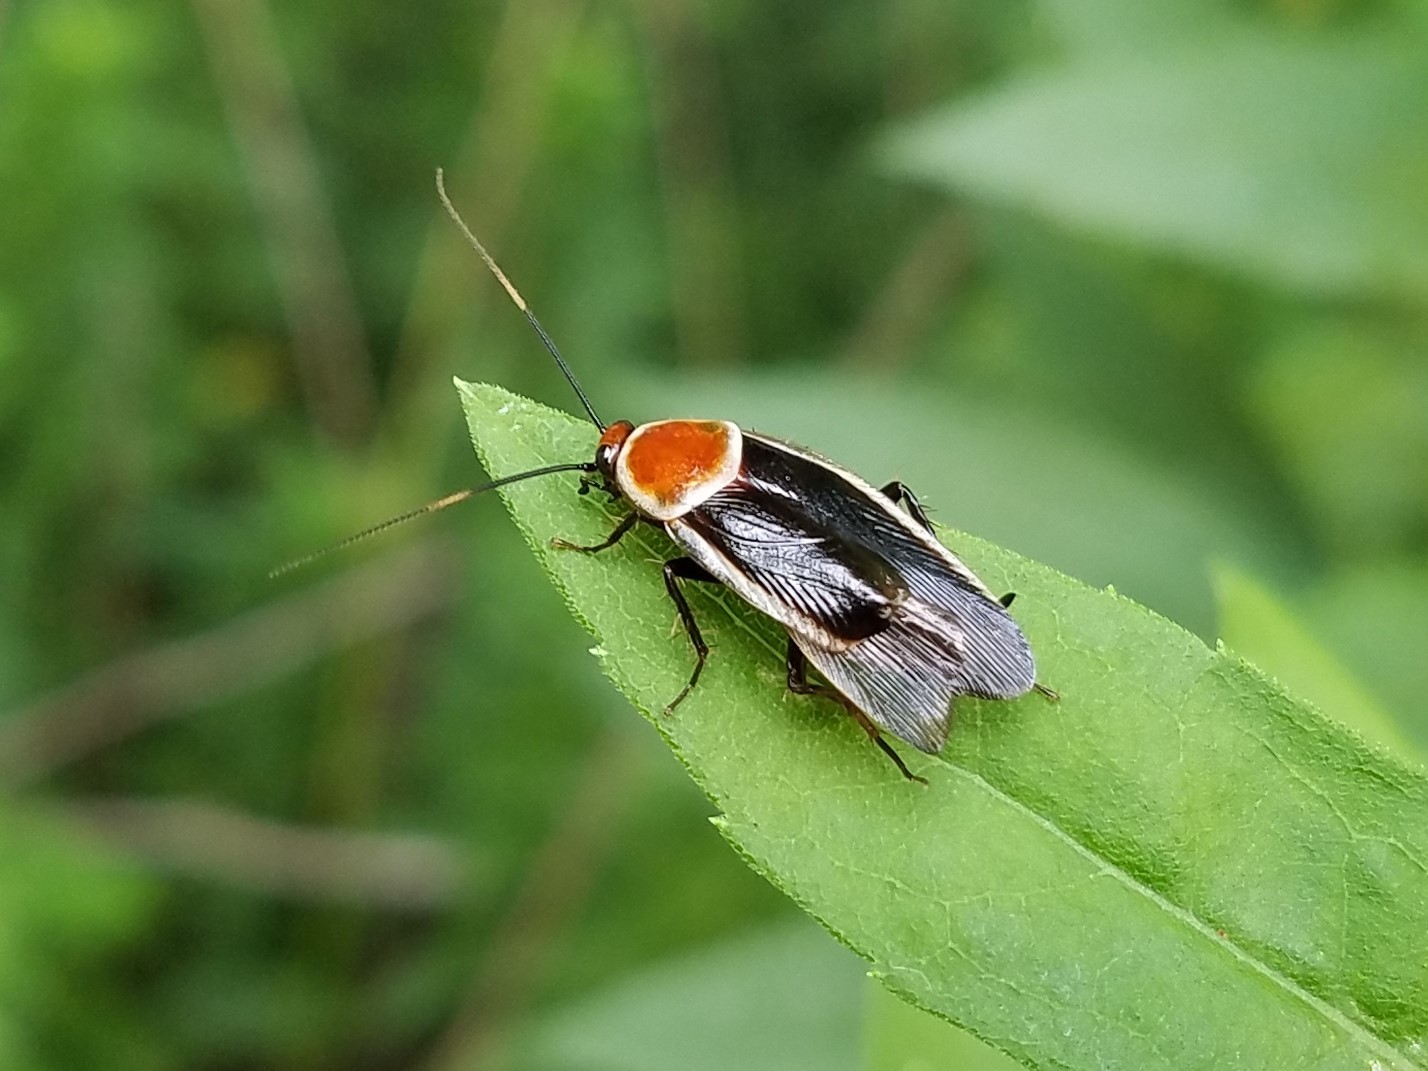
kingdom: Animalia
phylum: Arthropoda
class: Insecta
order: Blattodea
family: Ectobiidae
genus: Pseudomops
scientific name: Pseudomops septentrionalis
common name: Pale-bordered field cockroach
